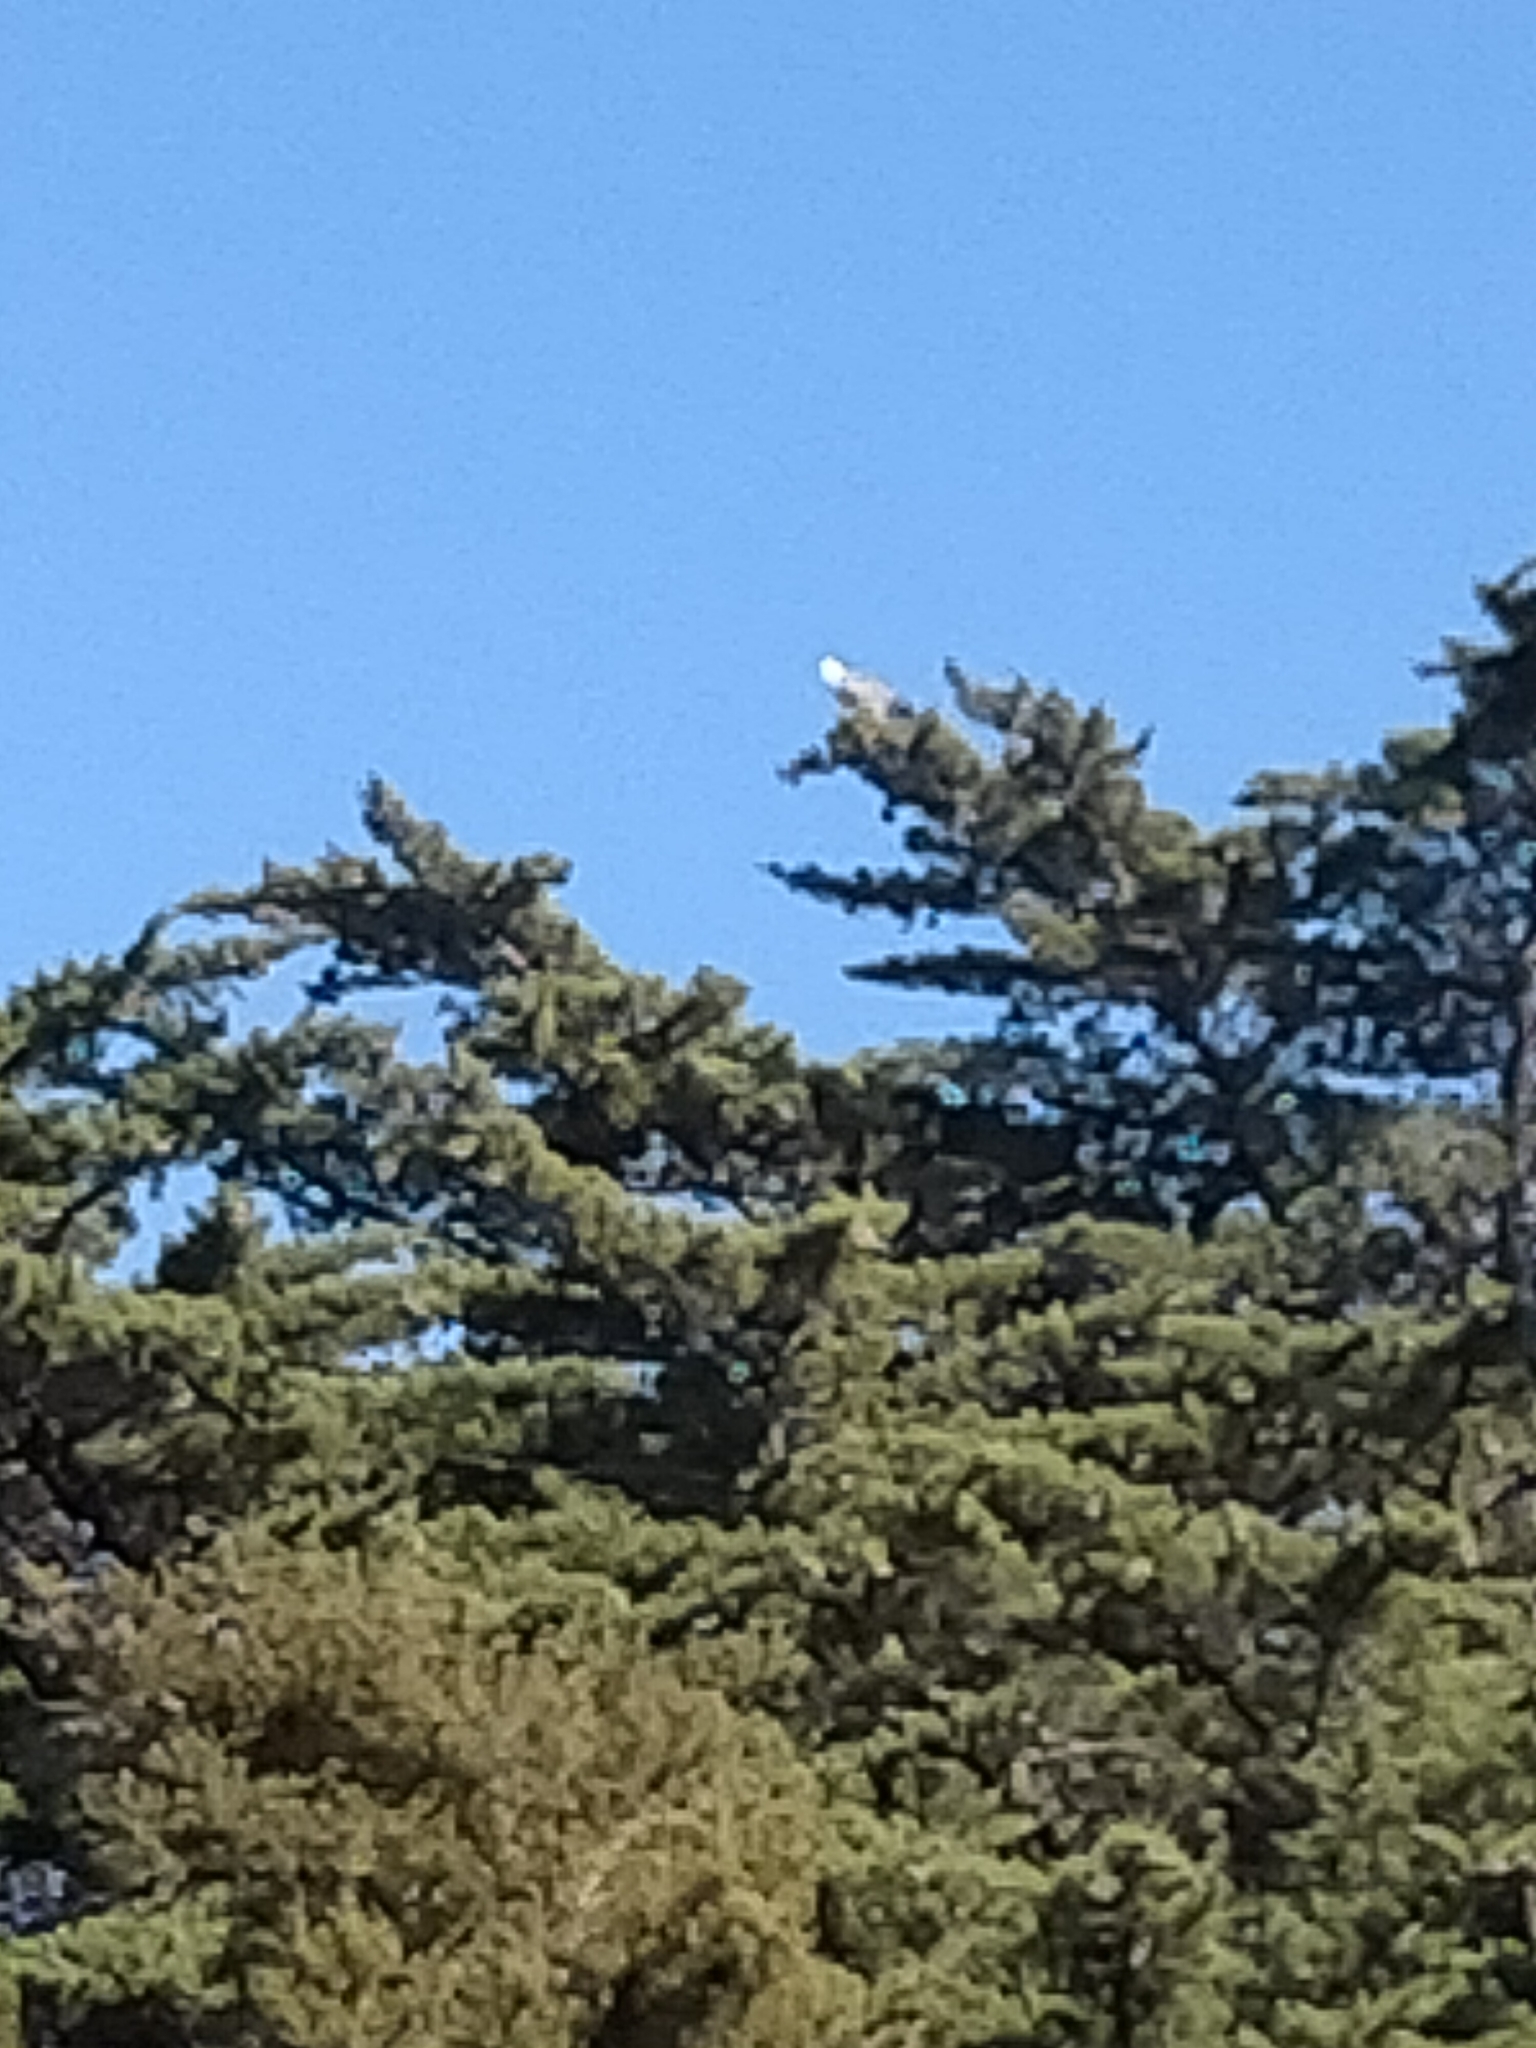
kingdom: Animalia
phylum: Chordata
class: Aves
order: Pelecaniformes
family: Ardeidae
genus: Egretta
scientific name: Egretta novaehollandiae
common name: White-faced heron
